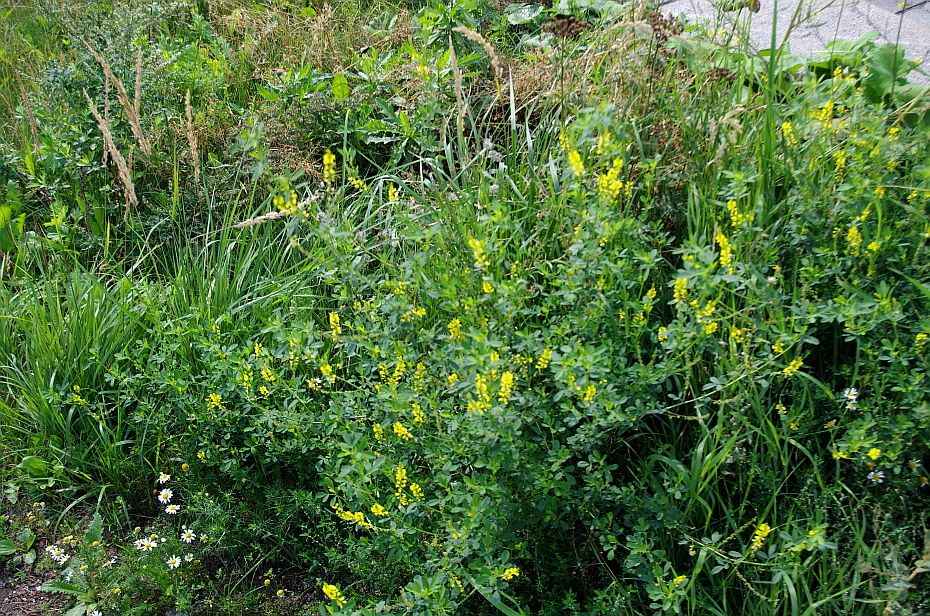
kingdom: Plantae
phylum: Tracheophyta
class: Magnoliopsida
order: Fabales
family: Fabaceae
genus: Melilotus
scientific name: Melilotus officinalis
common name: Sweetclover
